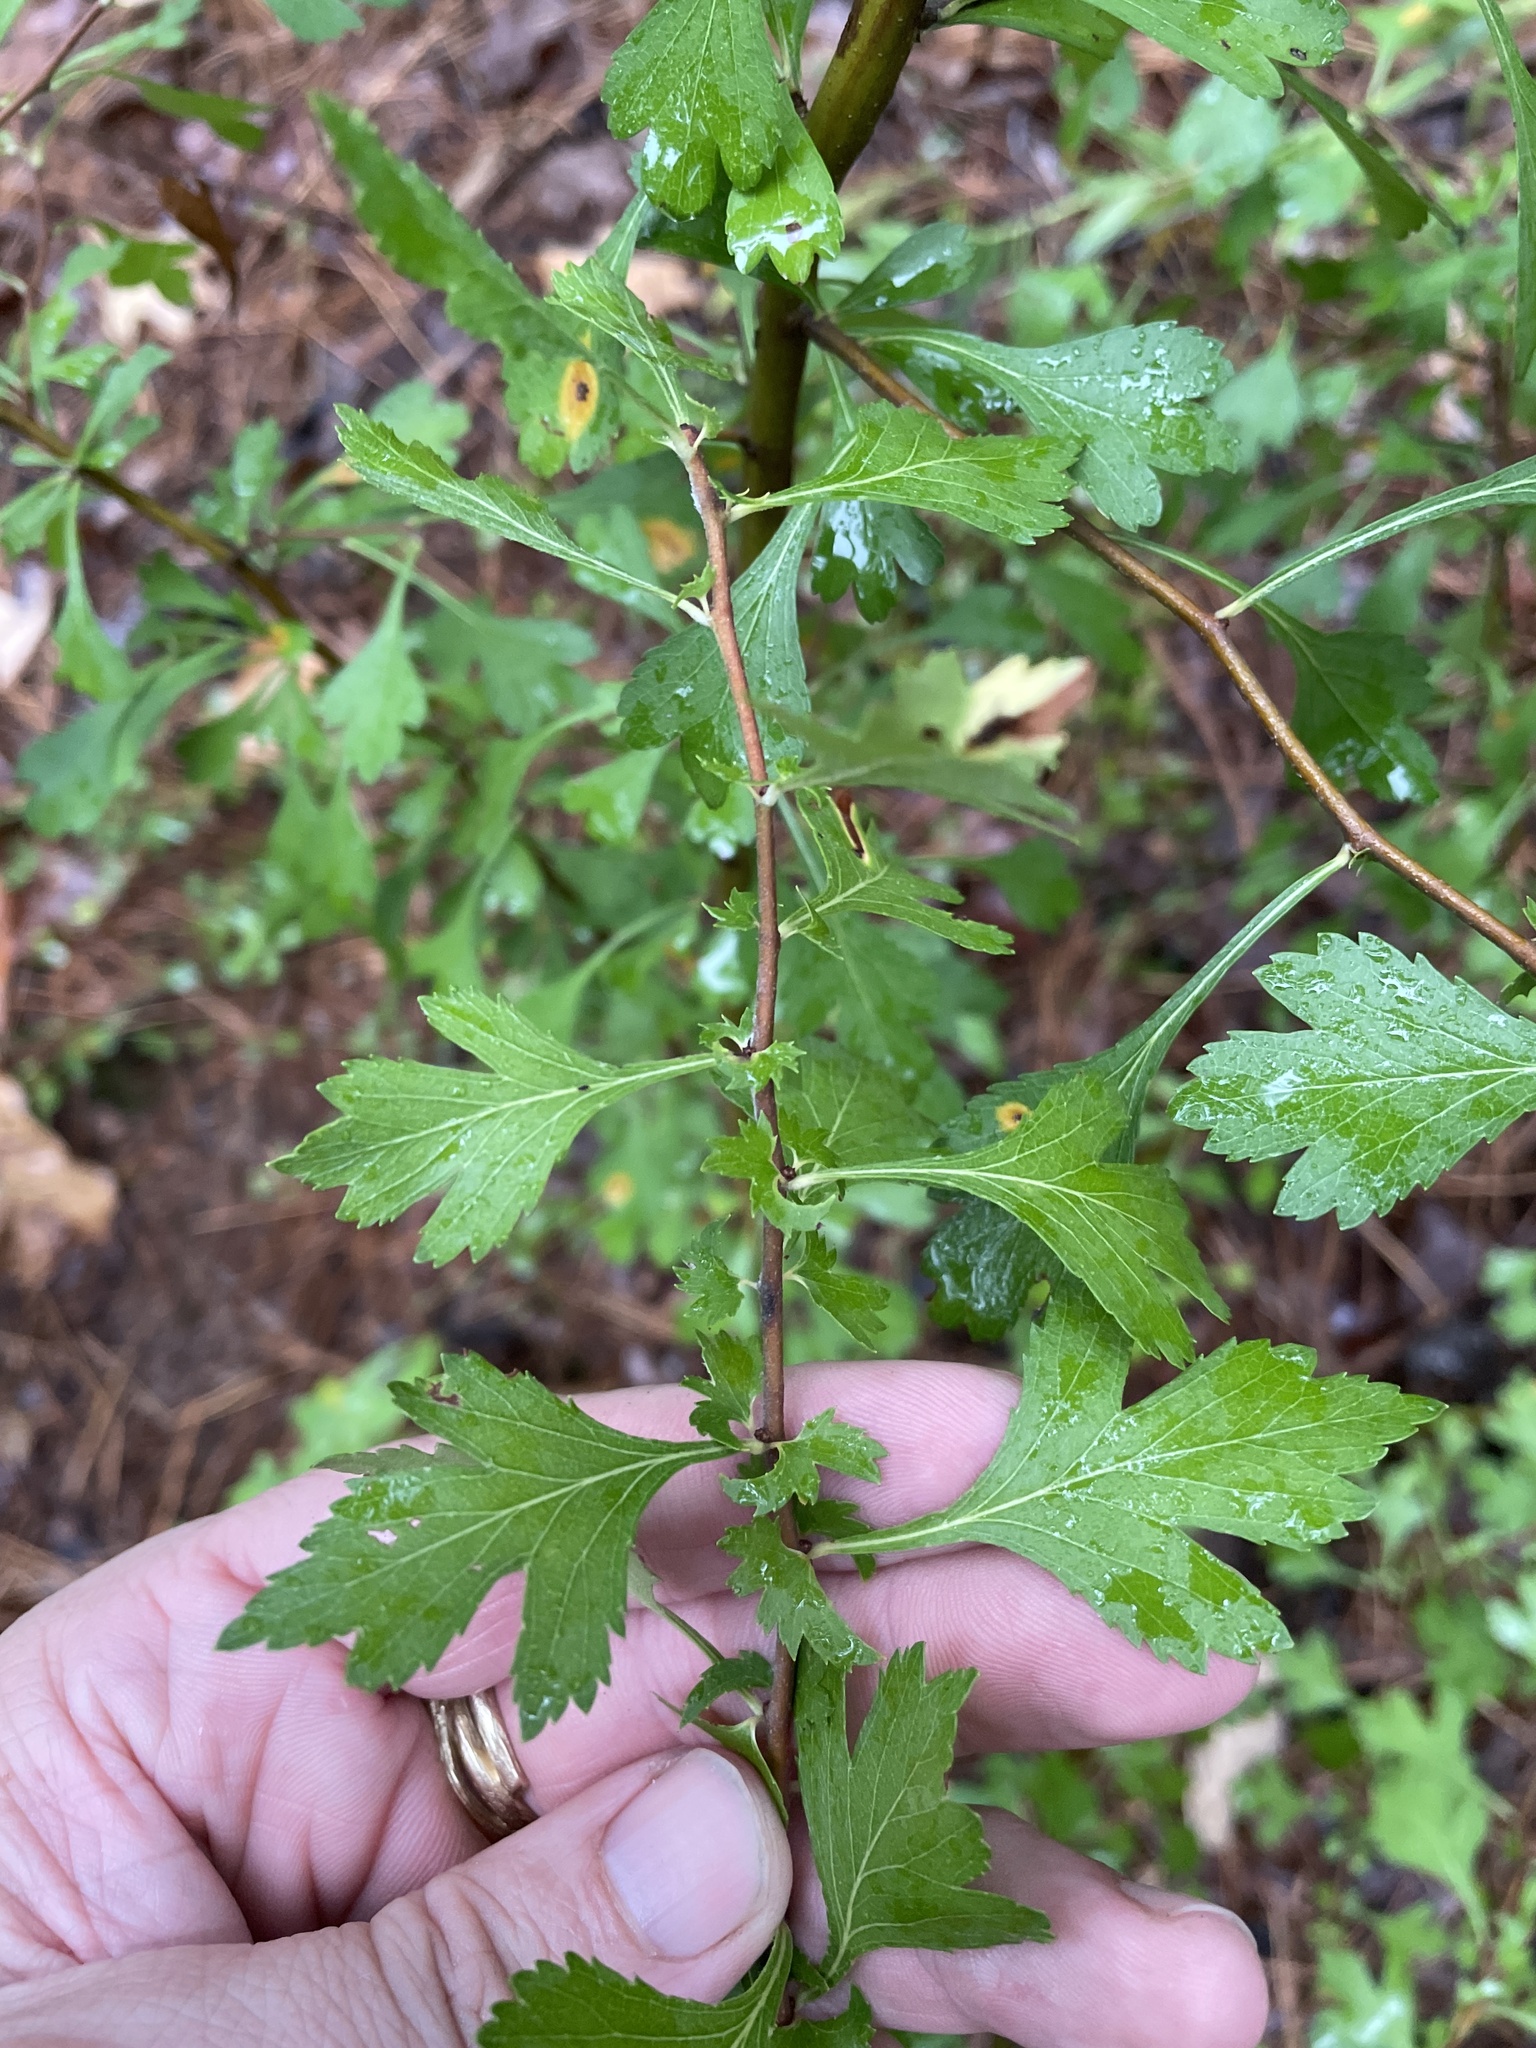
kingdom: Plantae
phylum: Tracheophyta
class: Magnoliopsida
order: Rosales
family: Rosaceae
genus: Crataegus
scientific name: Crataegus spathulata
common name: Littlehip hawthorn
